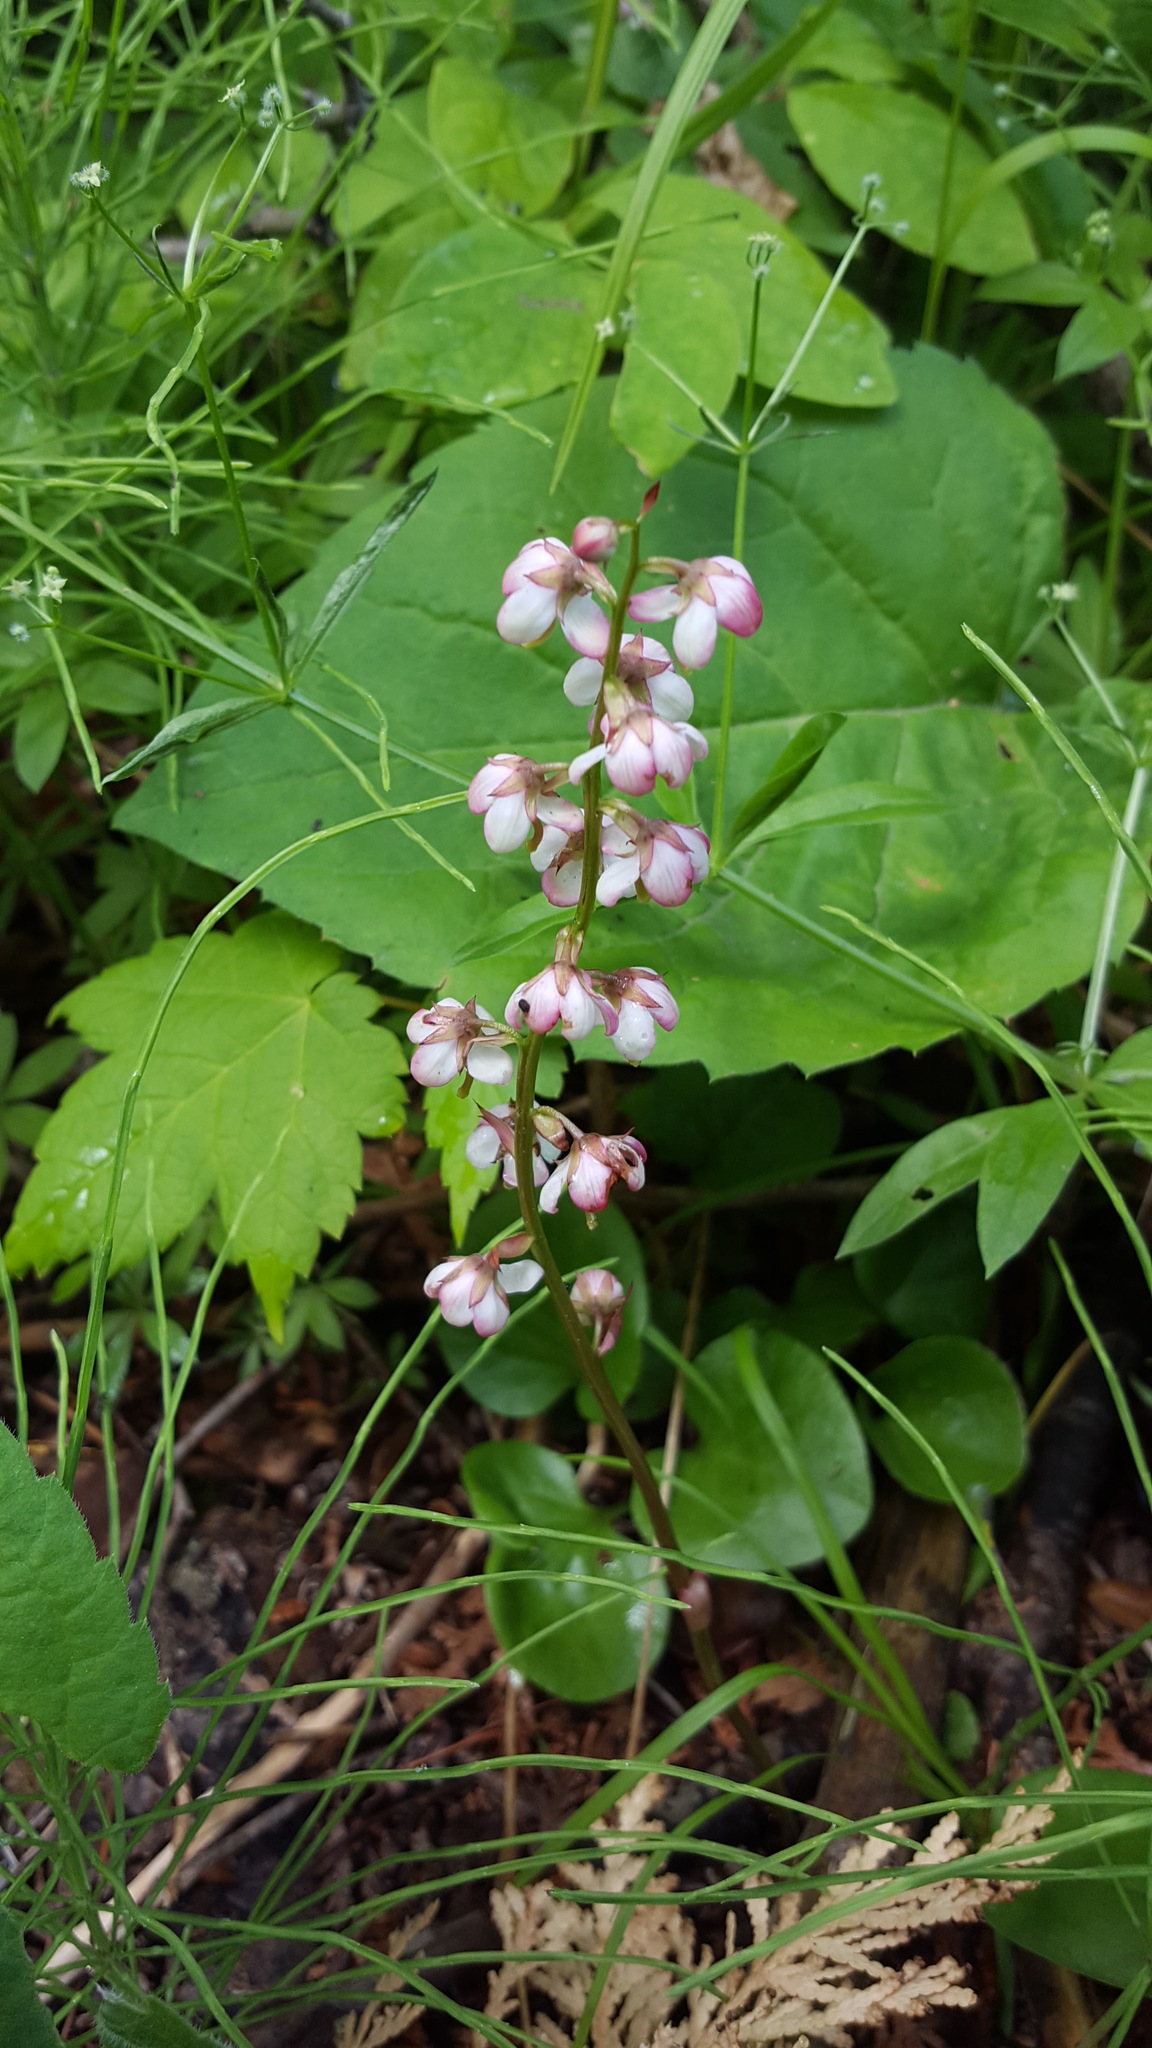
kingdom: Plantae
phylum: Tracheophyta
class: Magnoliopsida
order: Ericales
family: Ericaceae
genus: Pyrola
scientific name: Pyrola asarifolia
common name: Bog wintergreen
